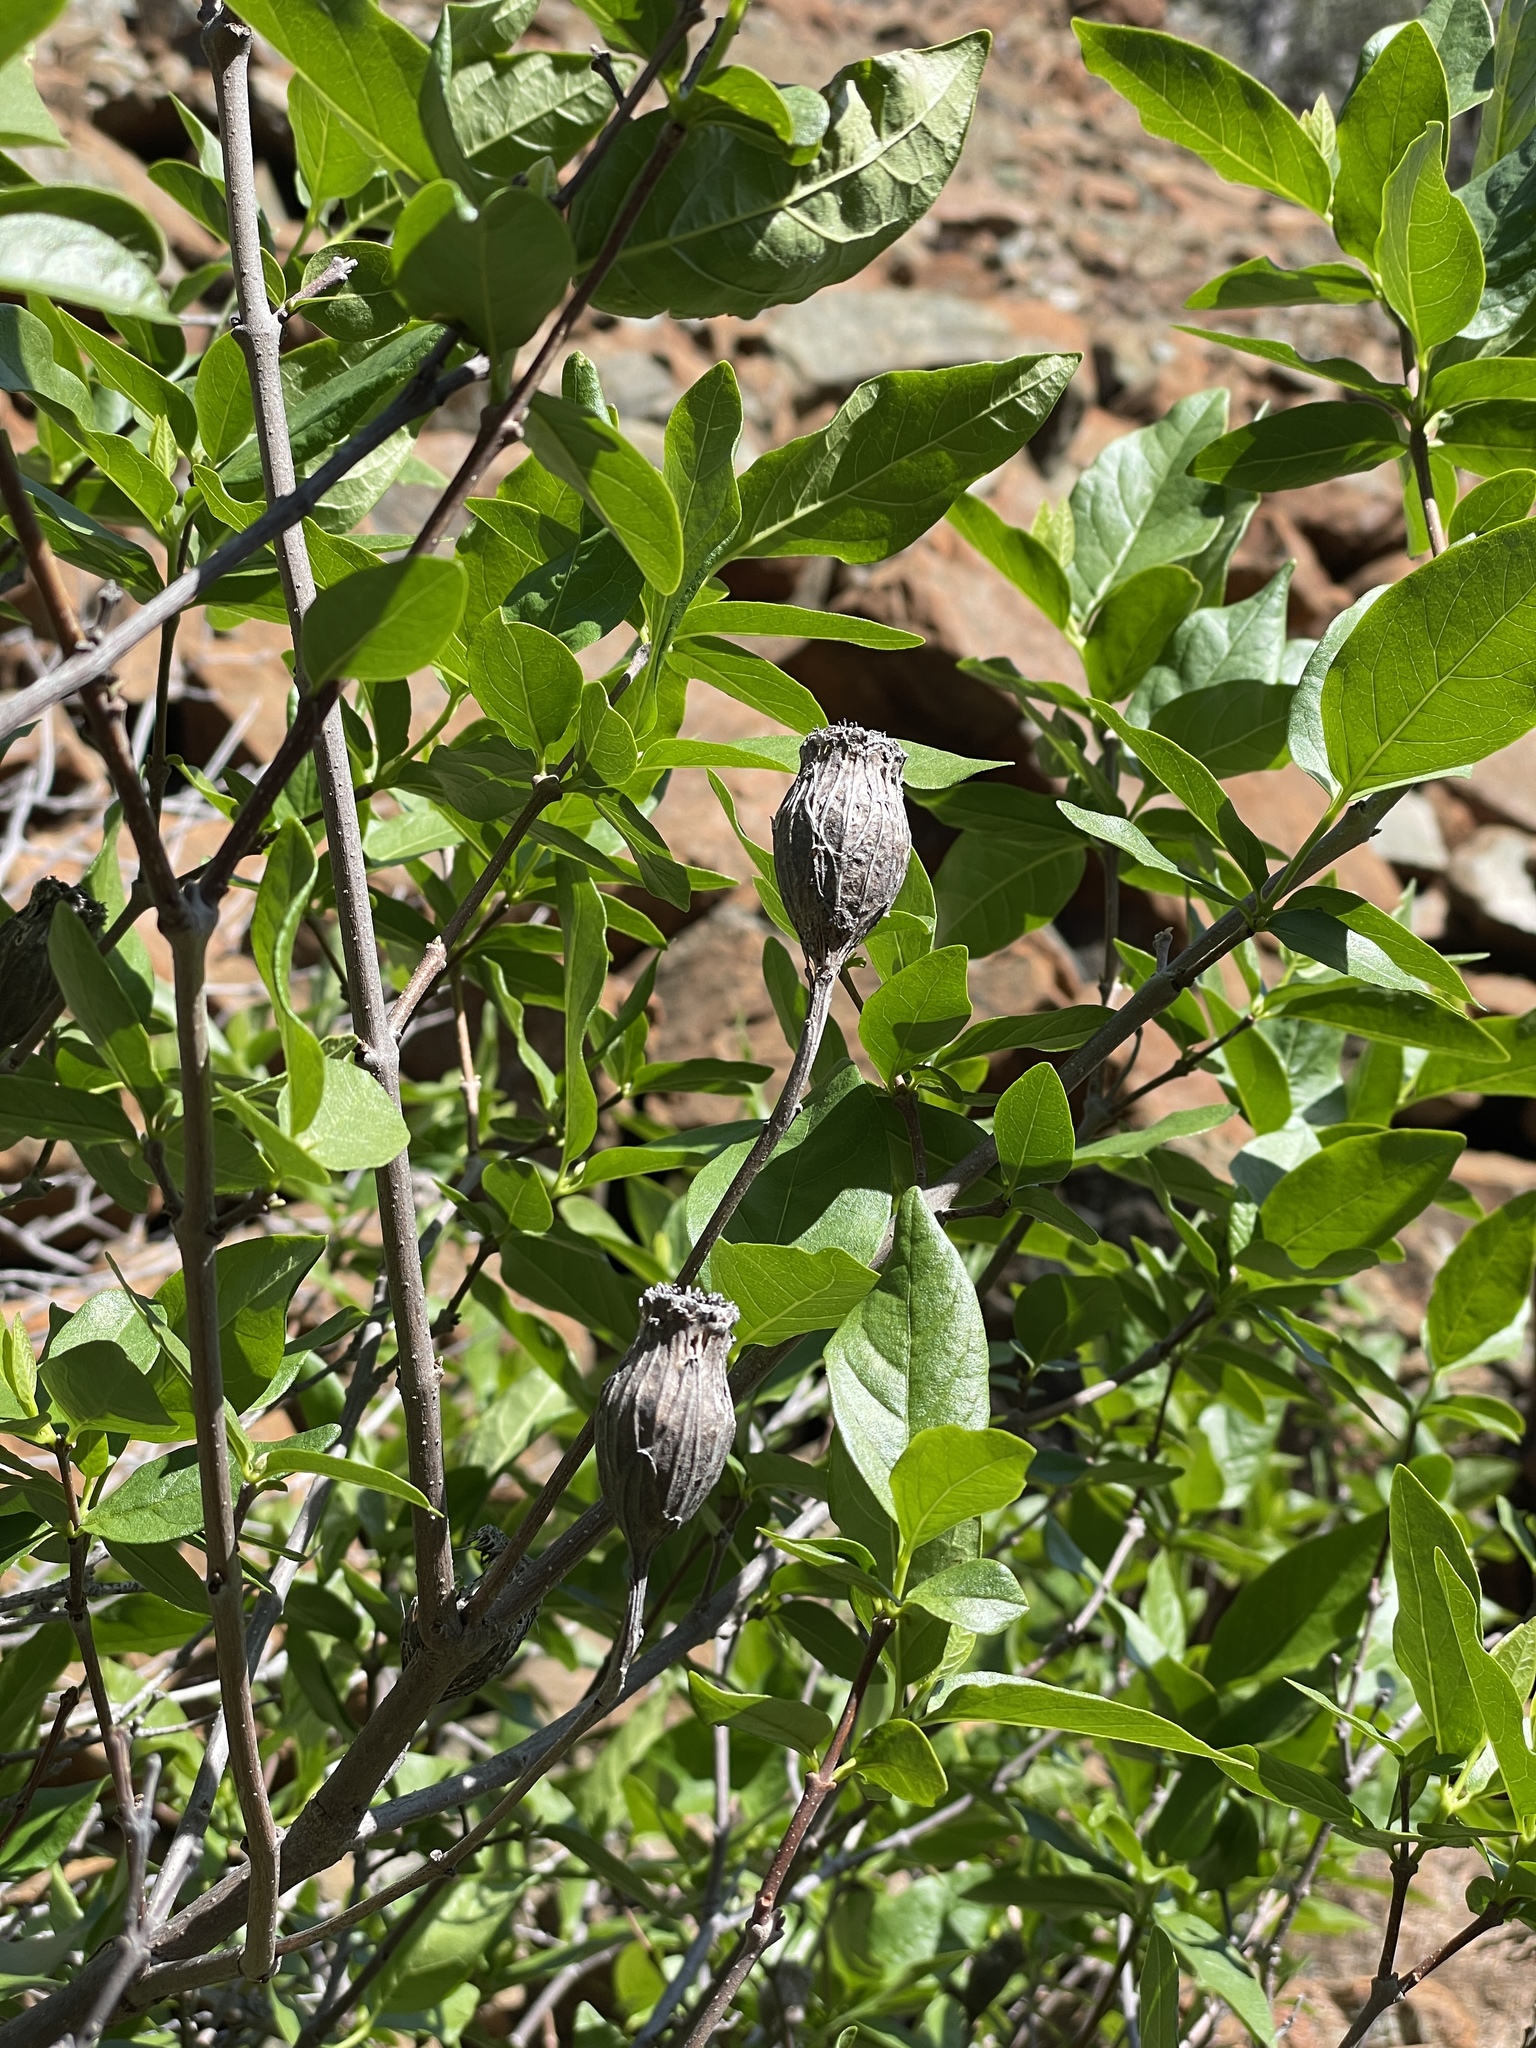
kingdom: Plantae
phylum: Tracheophyta
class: Magnoliopsida
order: Laurales
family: Calycanthaceae
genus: Calycanthus
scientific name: Calycanthus occidentalis
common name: California spicebush
